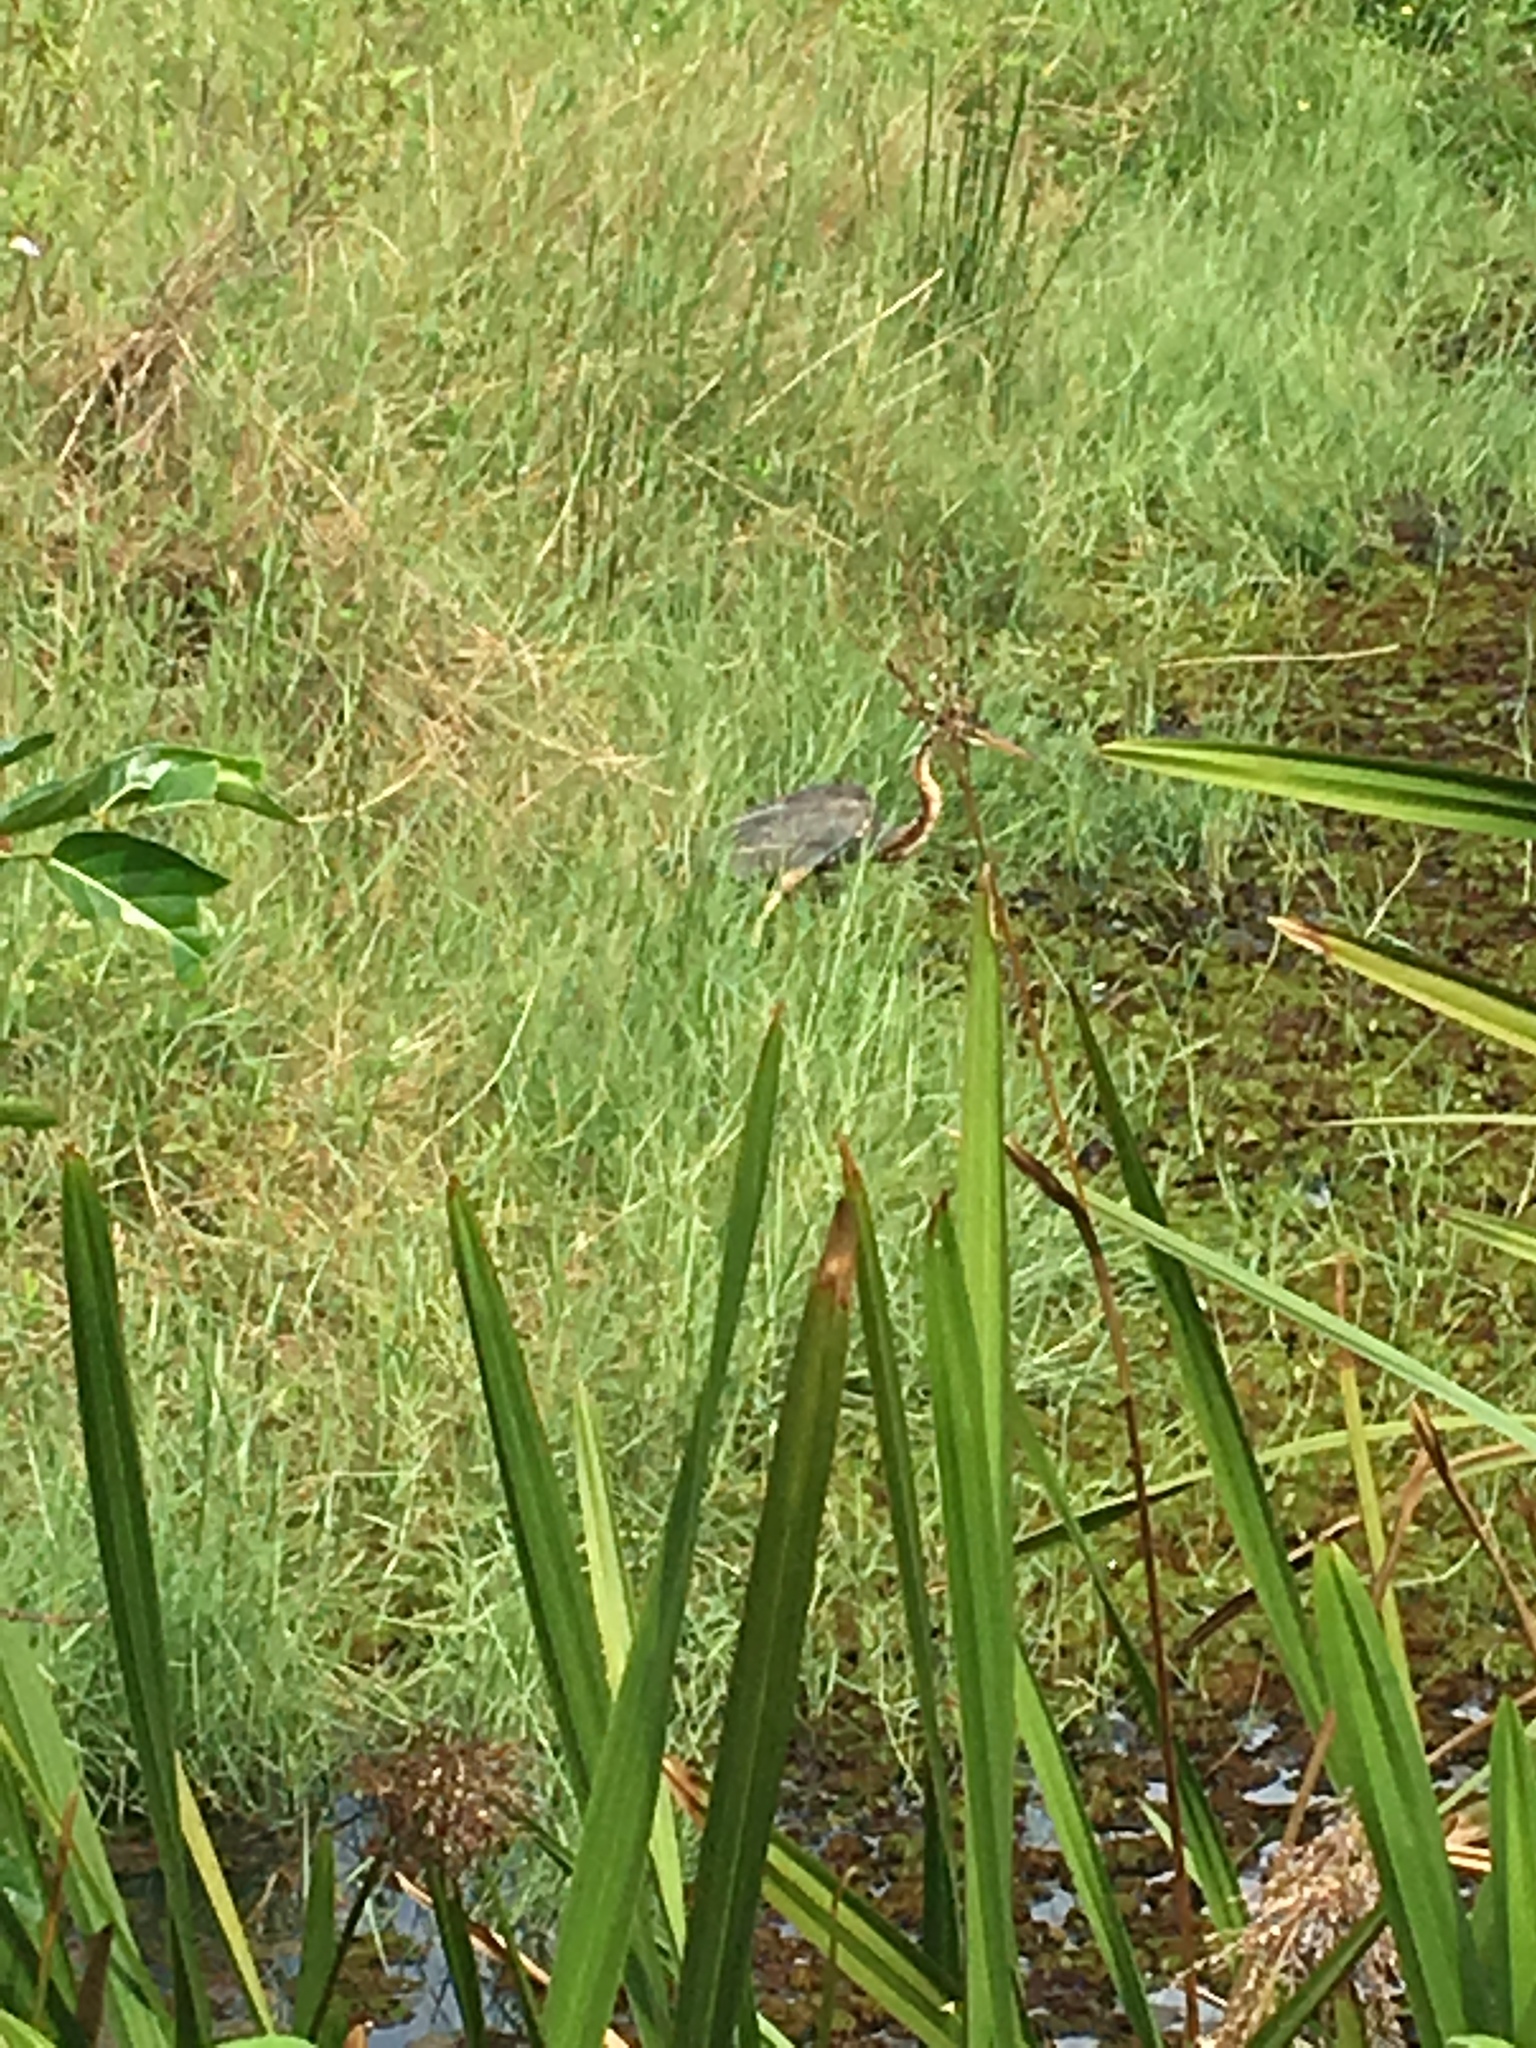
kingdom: Animalia
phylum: Chordata
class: Aves
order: Pelecaniformes
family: Ardeidae
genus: Ardea
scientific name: Ardea purpurea
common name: Purple heron
